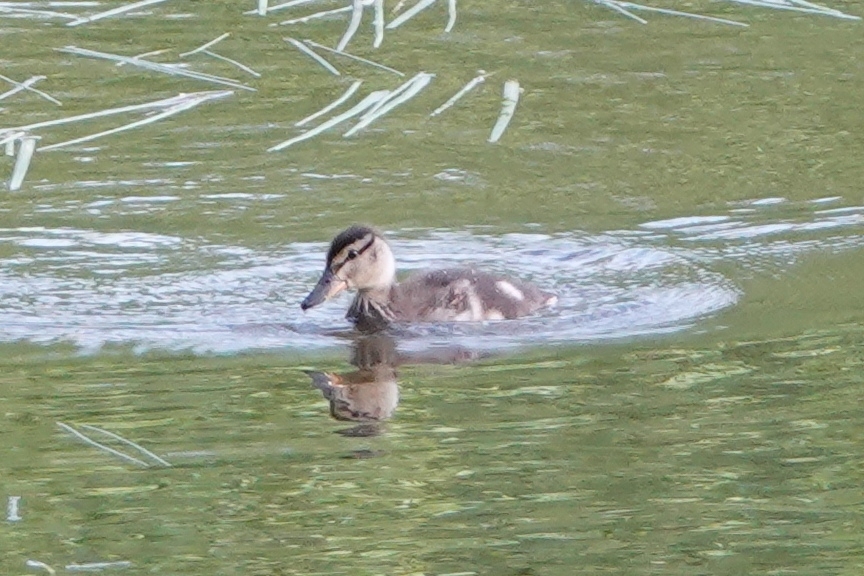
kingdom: Animalia
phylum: Chordata
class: Aves
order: Anseriformes
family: Anatidae
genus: Anas
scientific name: Anas platyrhynchos
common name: Mallard
